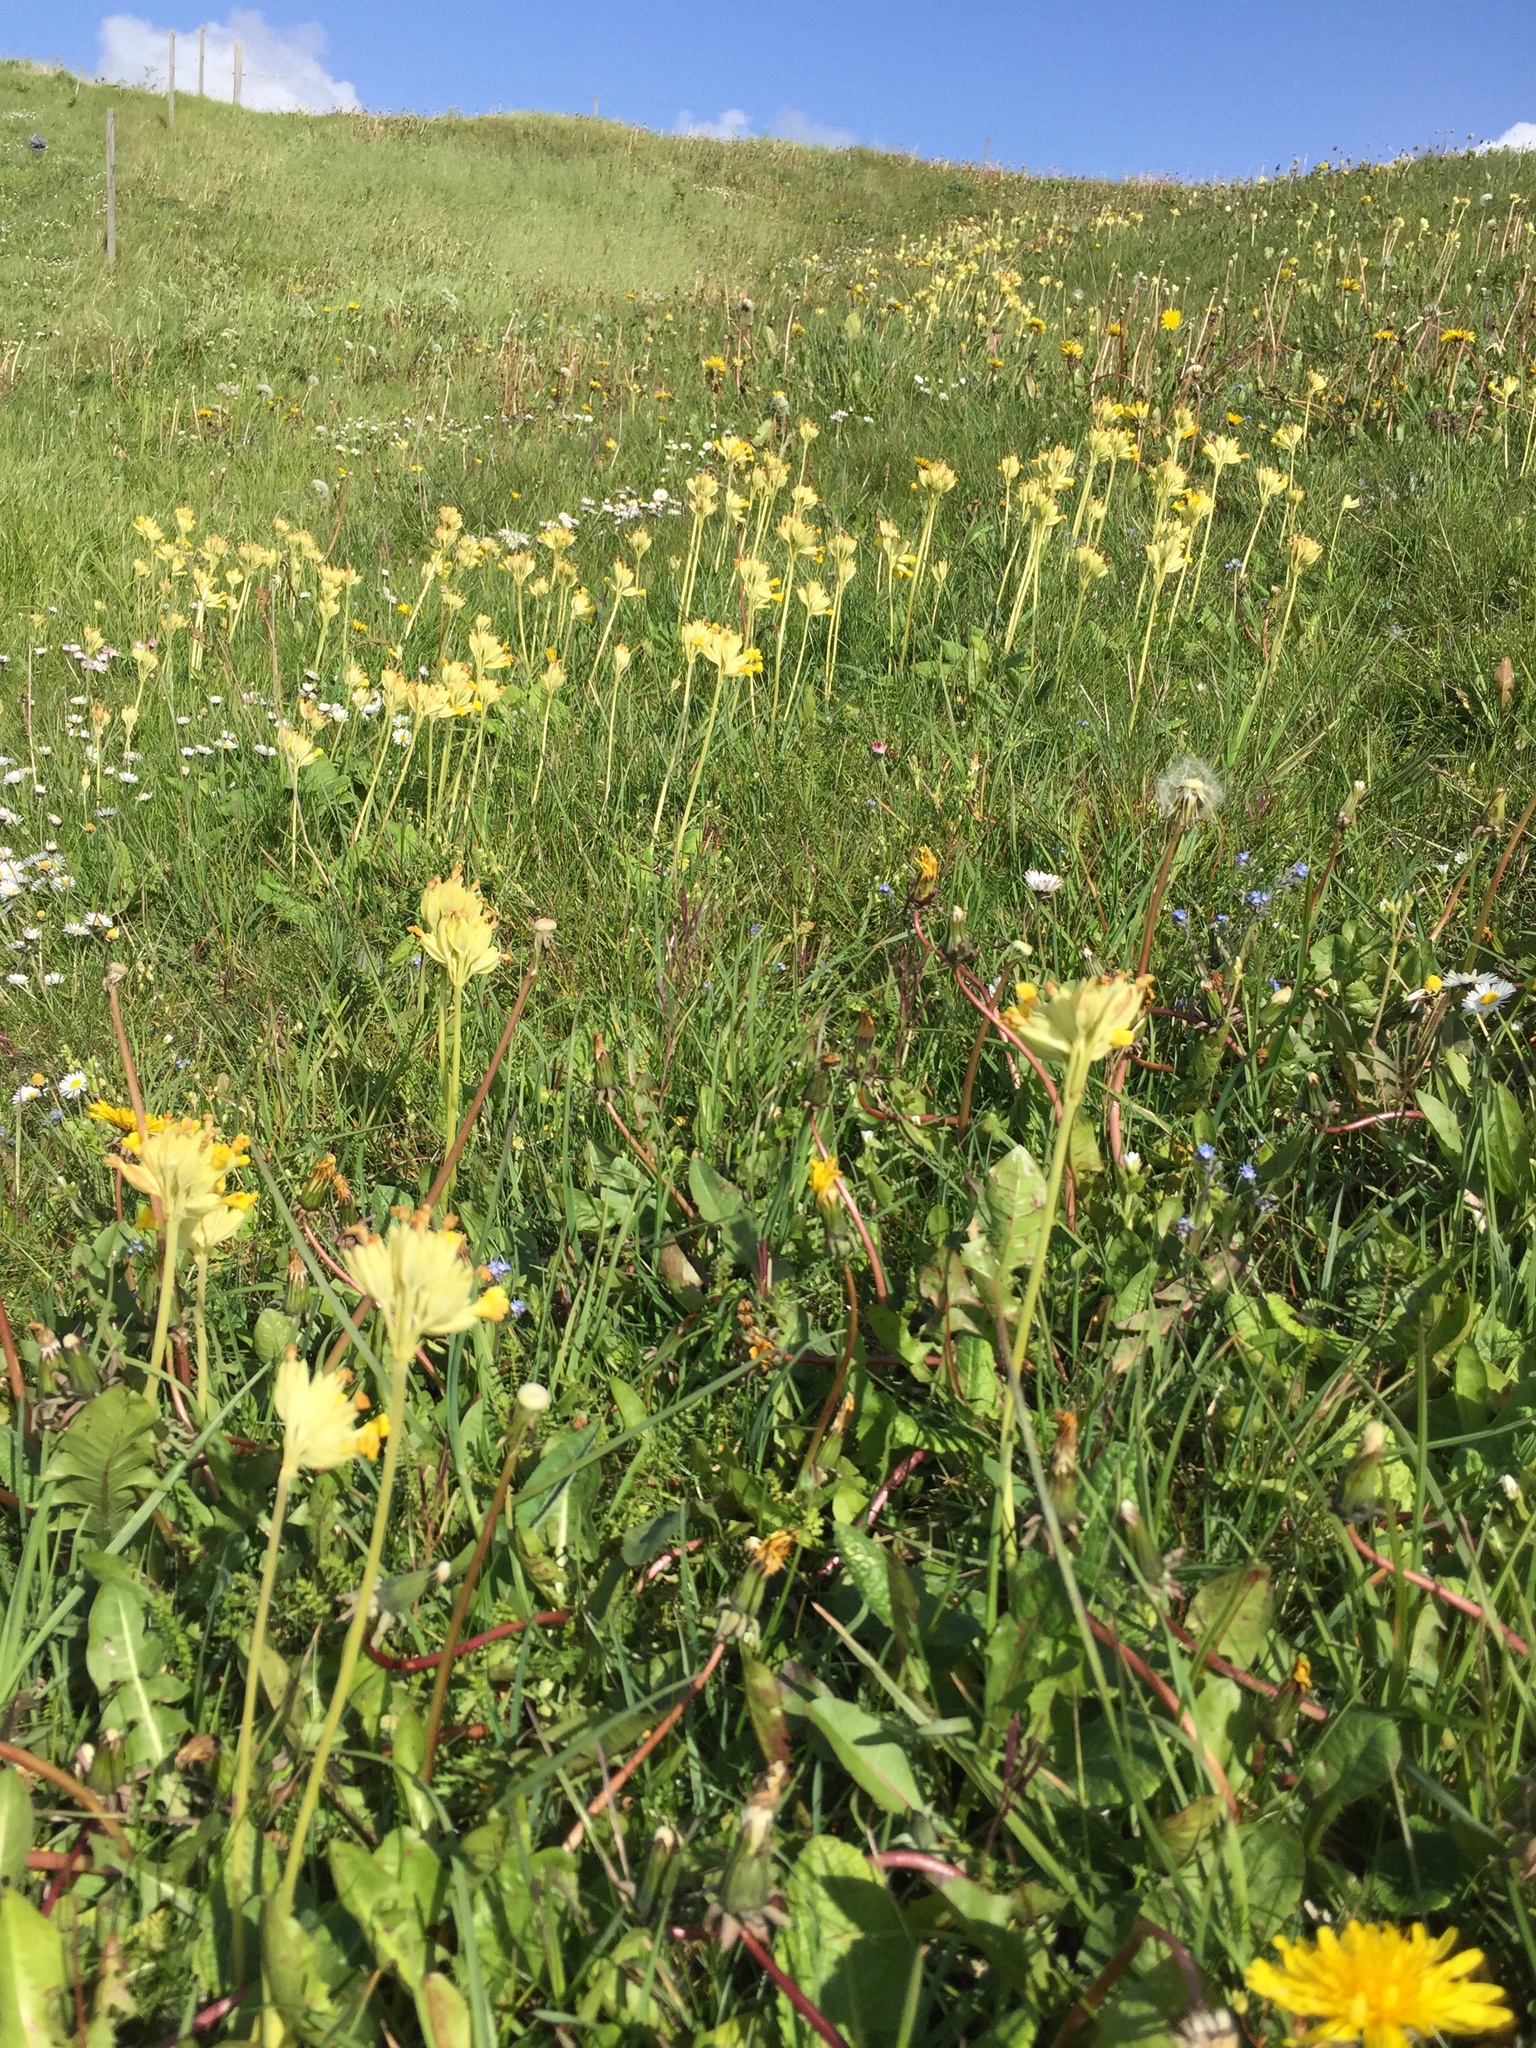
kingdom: Plantae
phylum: Tracheophyta
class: Magnoliopsida
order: Ericales
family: Primulaceae
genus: Primula
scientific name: Primula veris
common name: Cowslip
